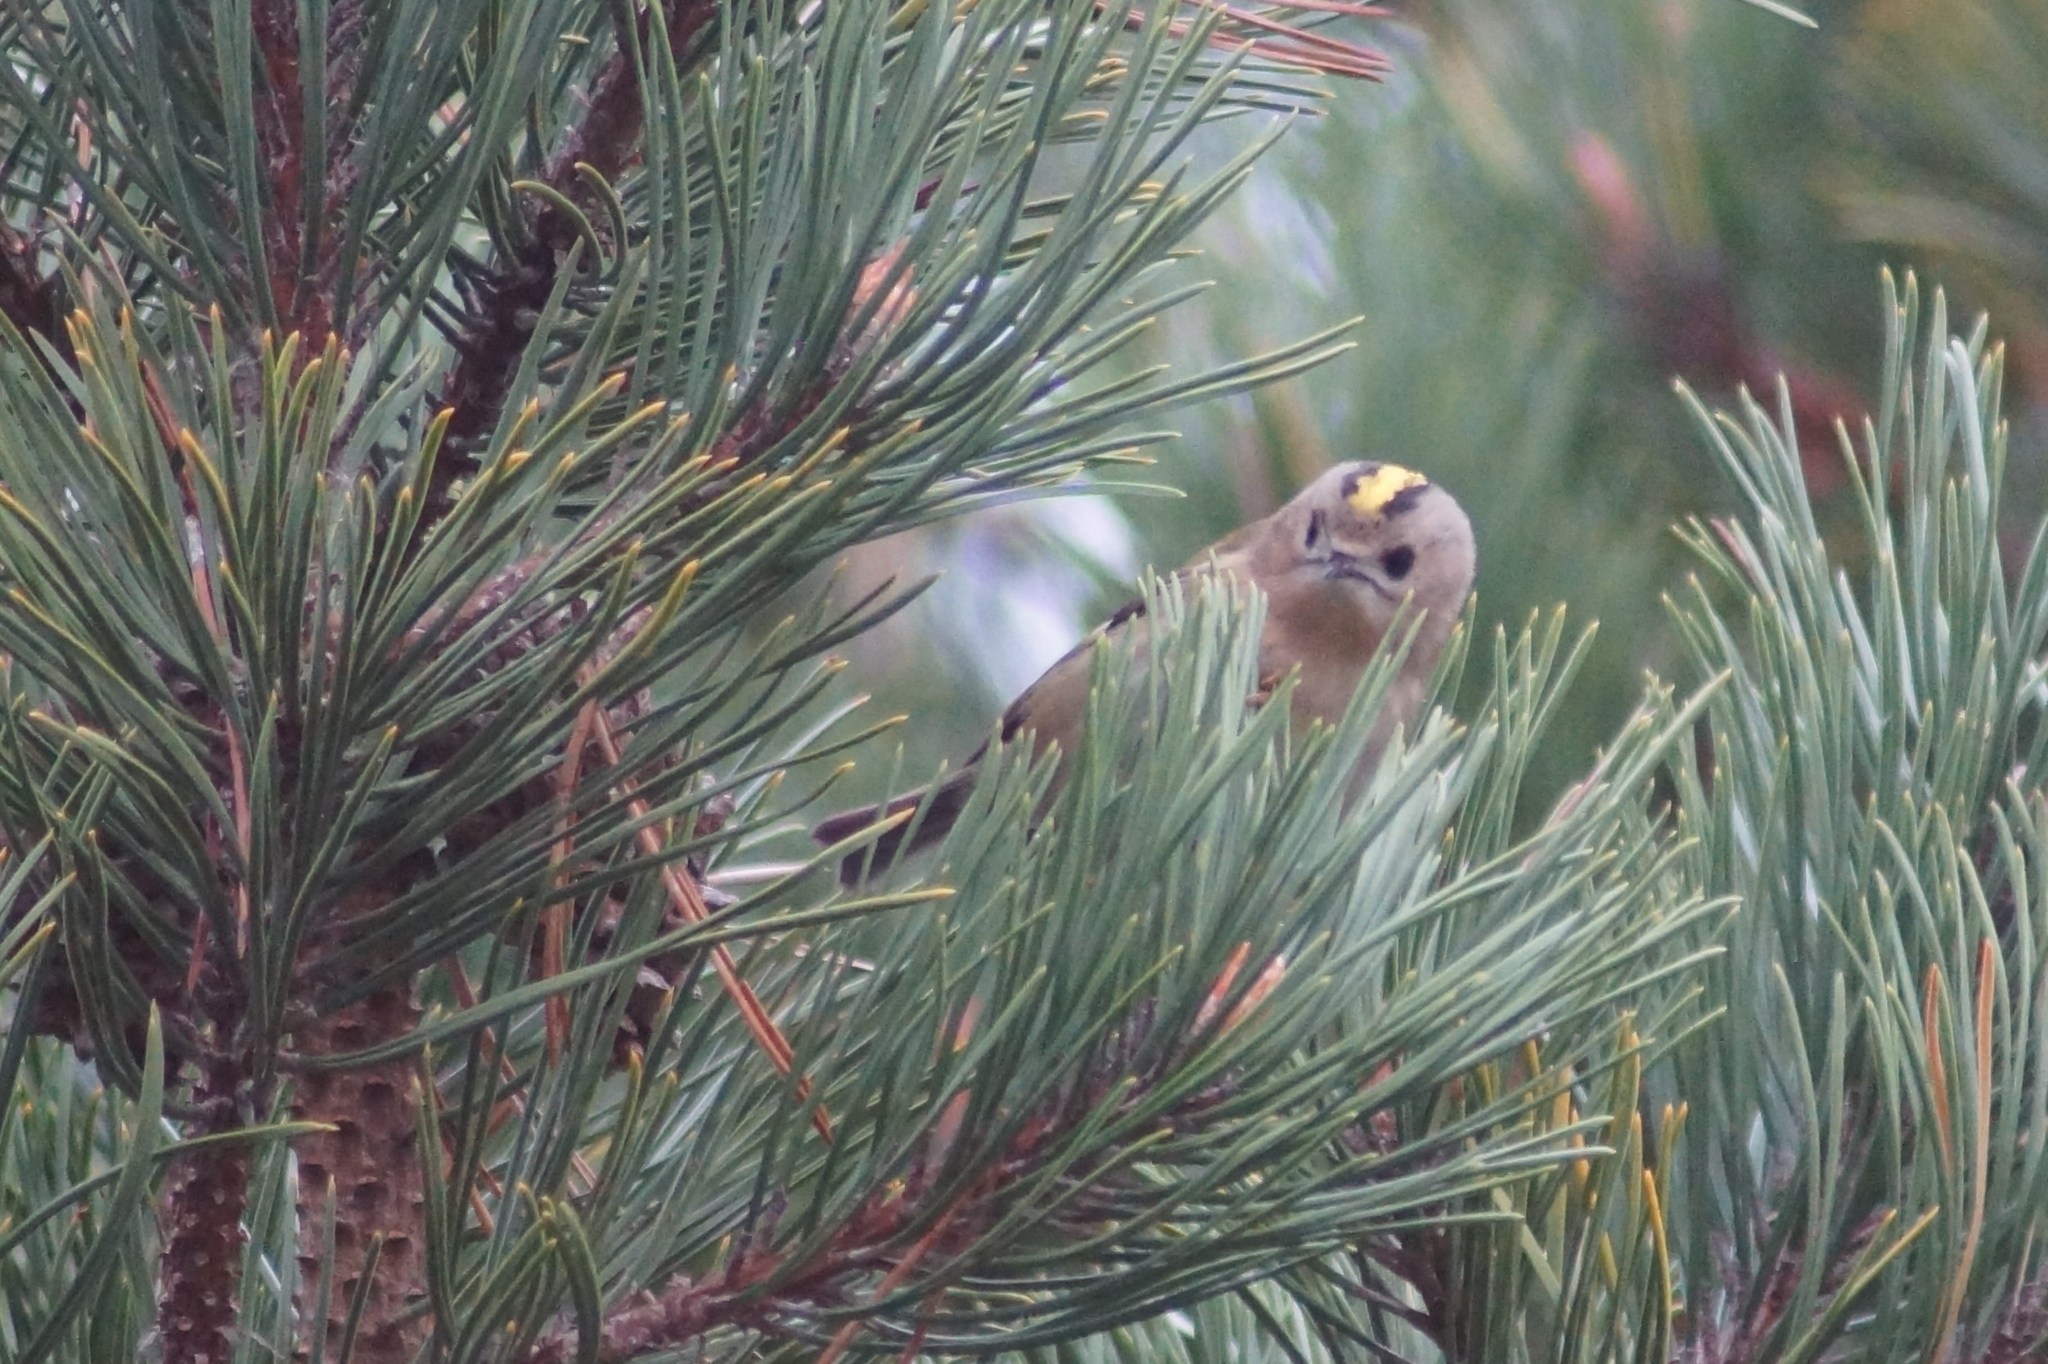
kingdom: Animalia
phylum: Chordata
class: Aves
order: Passeriformes
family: Regulidae
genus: Regulus
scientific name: Regulus regulus
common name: Goldcrest
